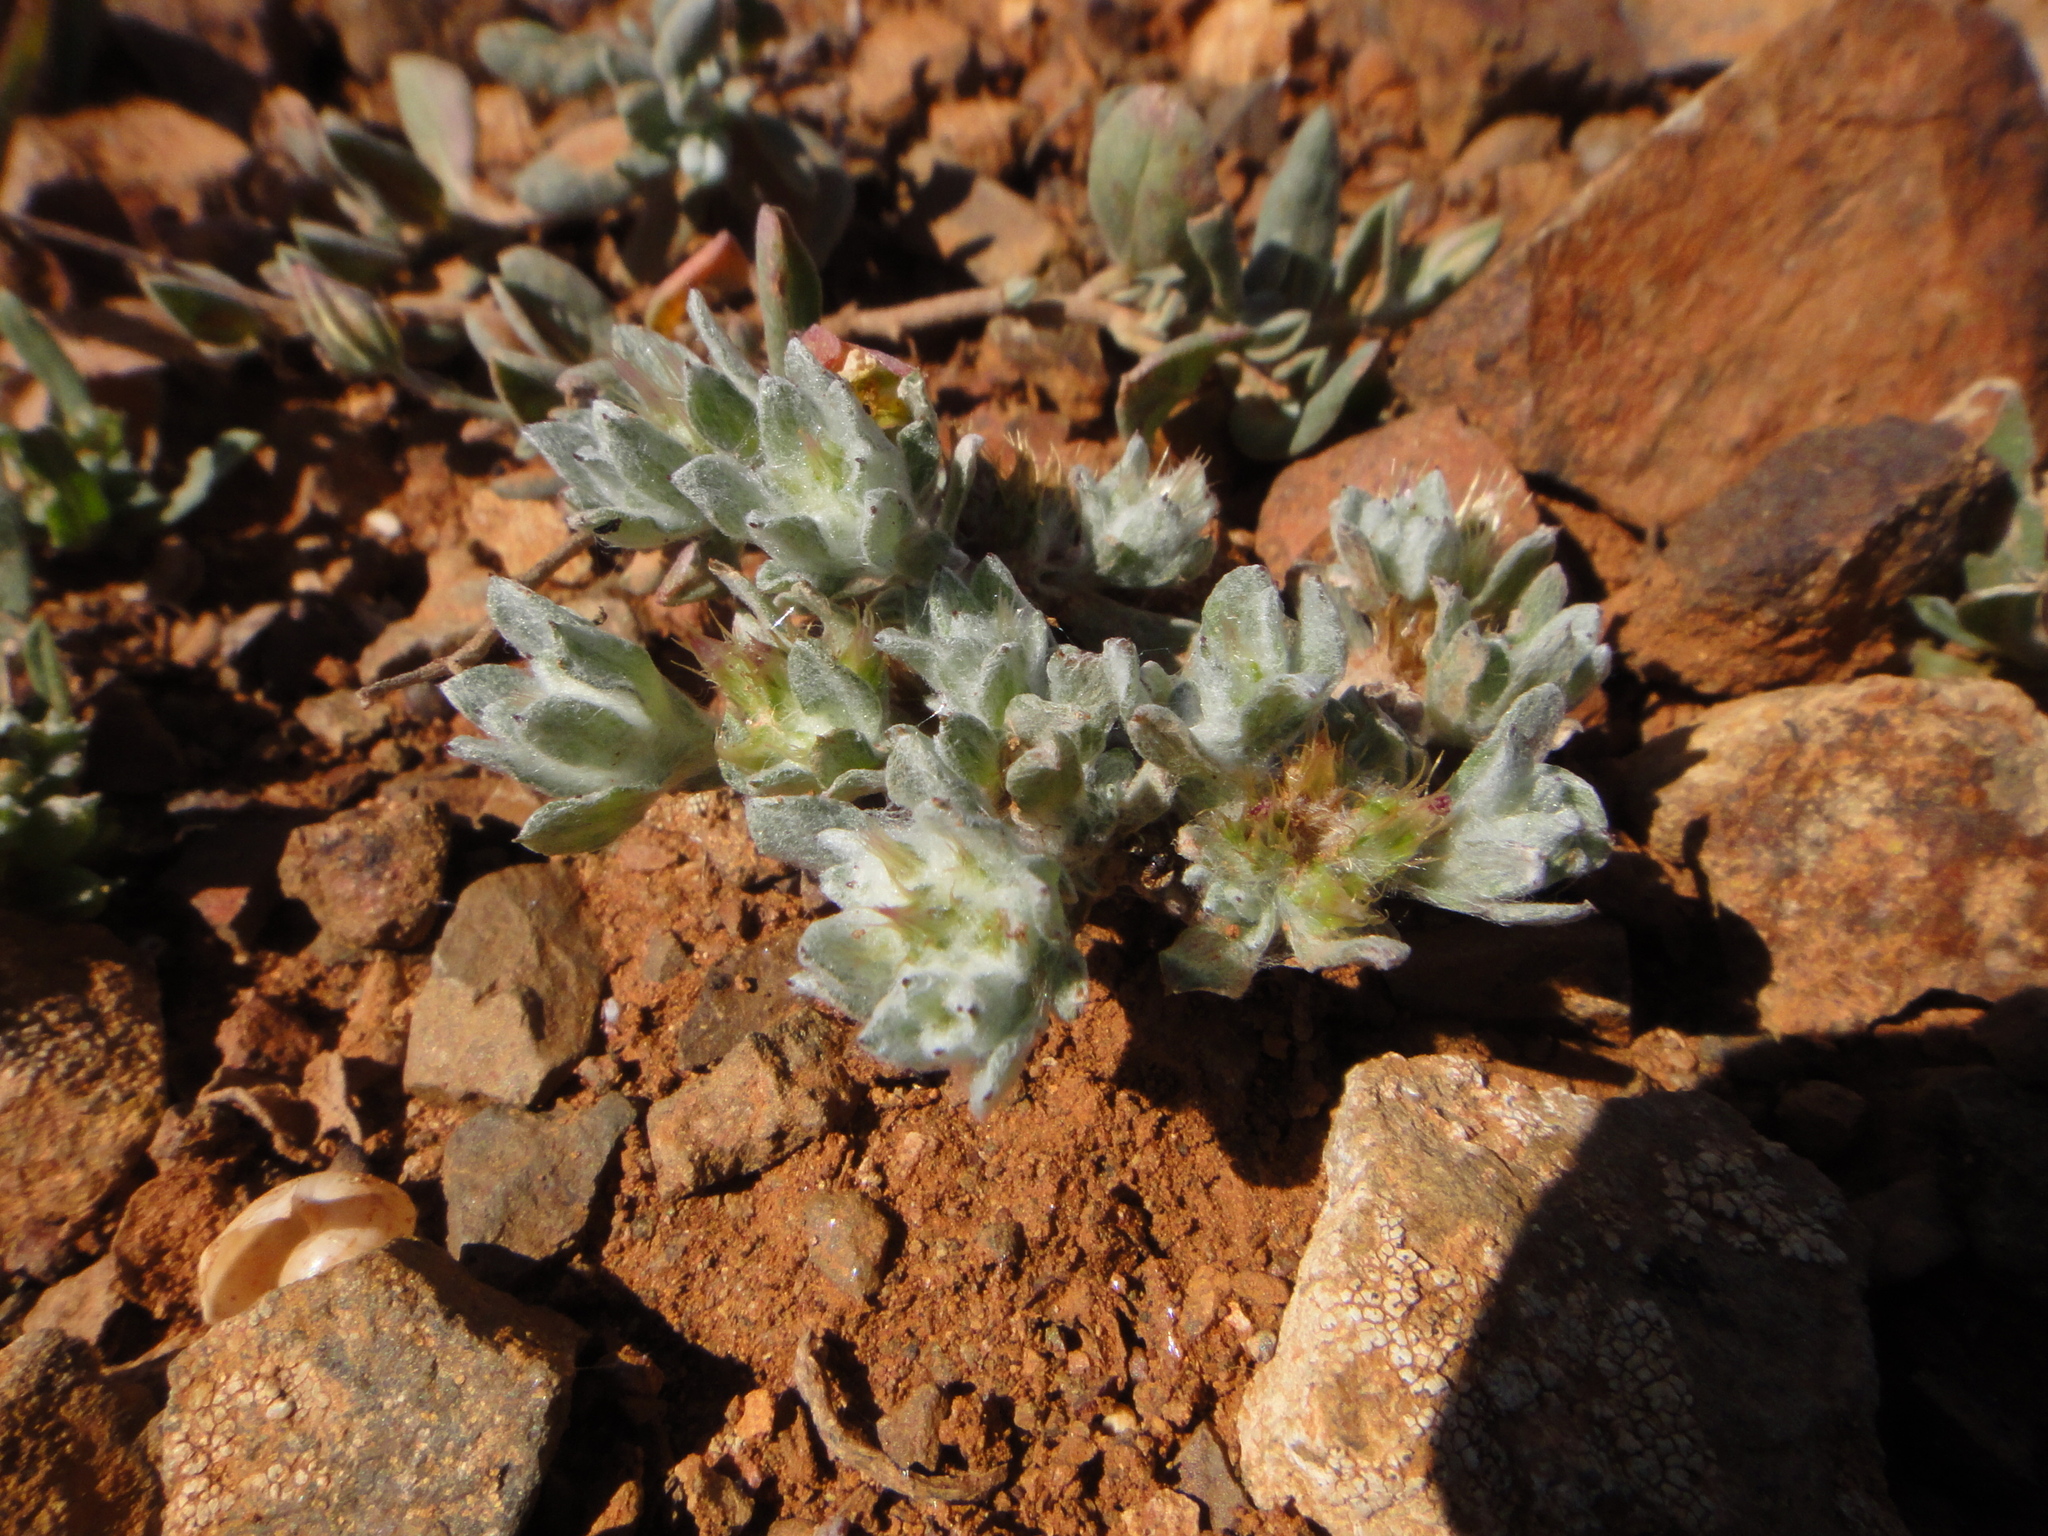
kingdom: Plantae
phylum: Tracheophyta
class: Magnoliopsida
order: Asterales
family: Asteraceae
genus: Filago
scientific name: Filago desertorum
